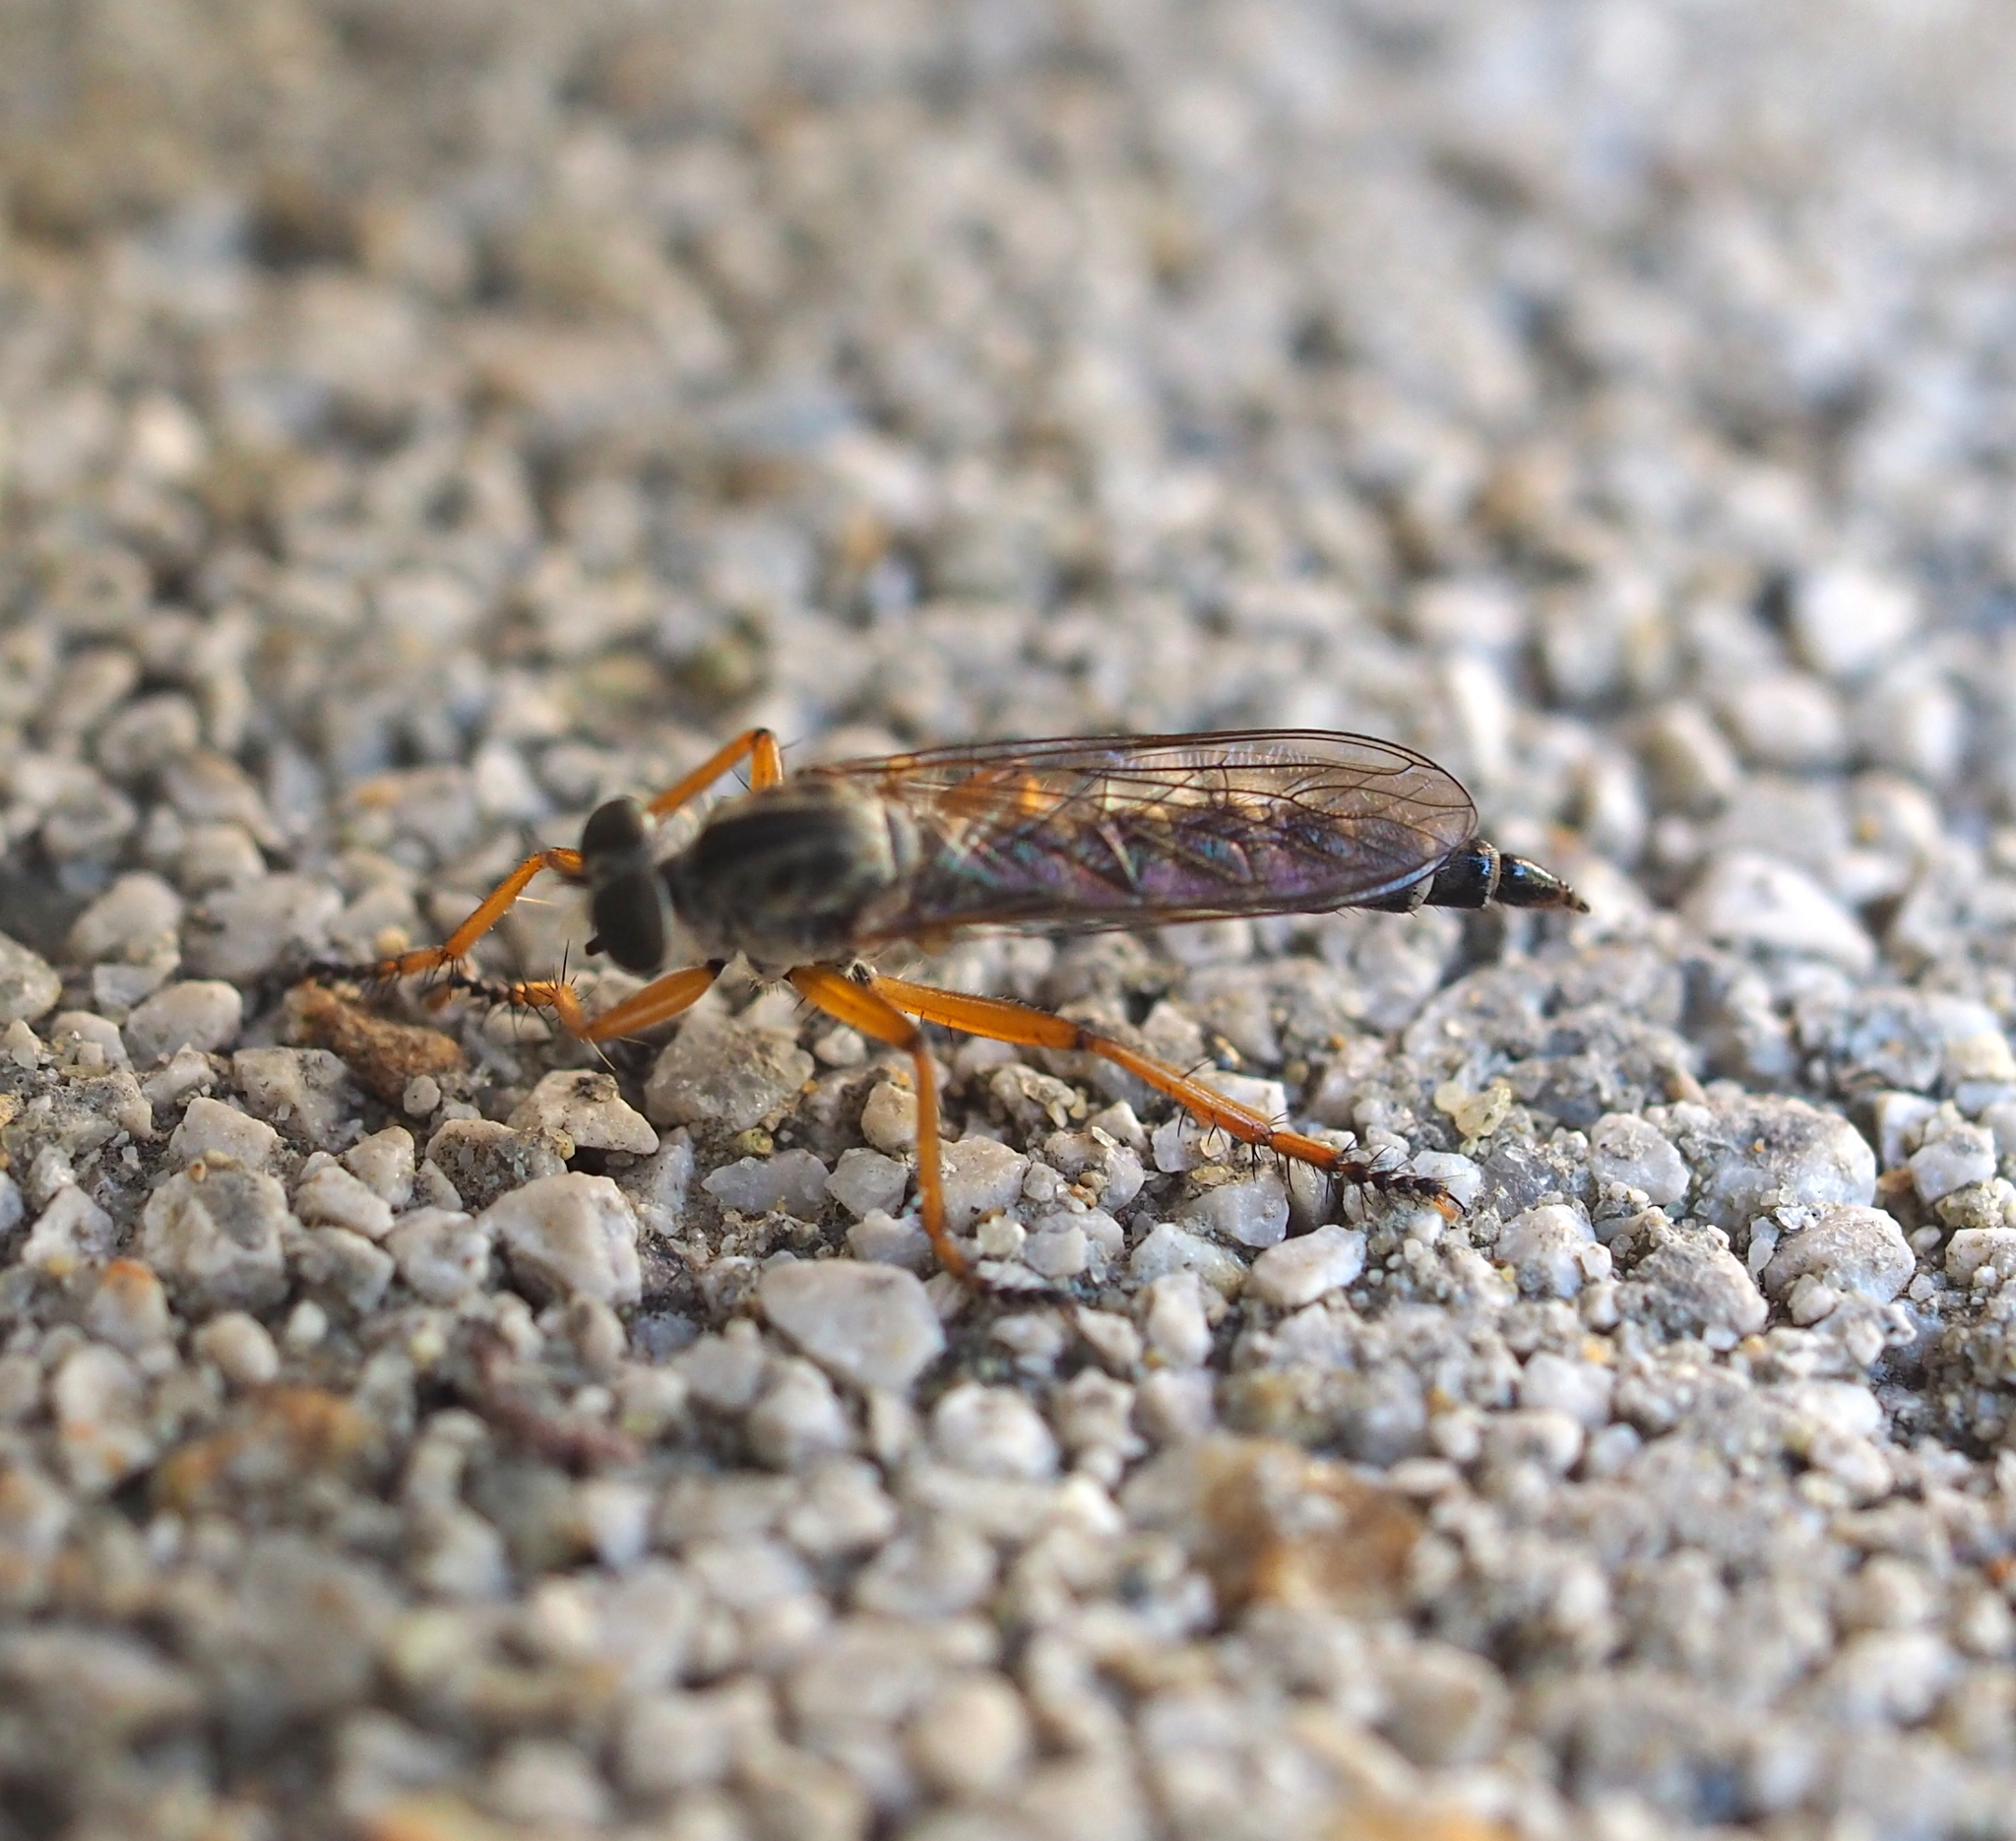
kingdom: Animalia
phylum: Arthropoda
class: Insecta
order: Diptera
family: Asilidae
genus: Neomochtherus
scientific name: Neomochtherus schineri
